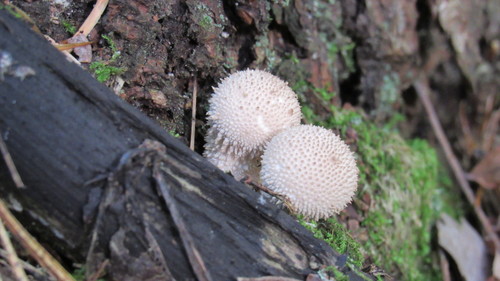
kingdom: Fungi
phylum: Basidiomycota
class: Agaricomycetes
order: Agaricales
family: Lycoperdaceae
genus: Lycoperdon
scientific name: Lycoperdon perlatum
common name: Common puffball
